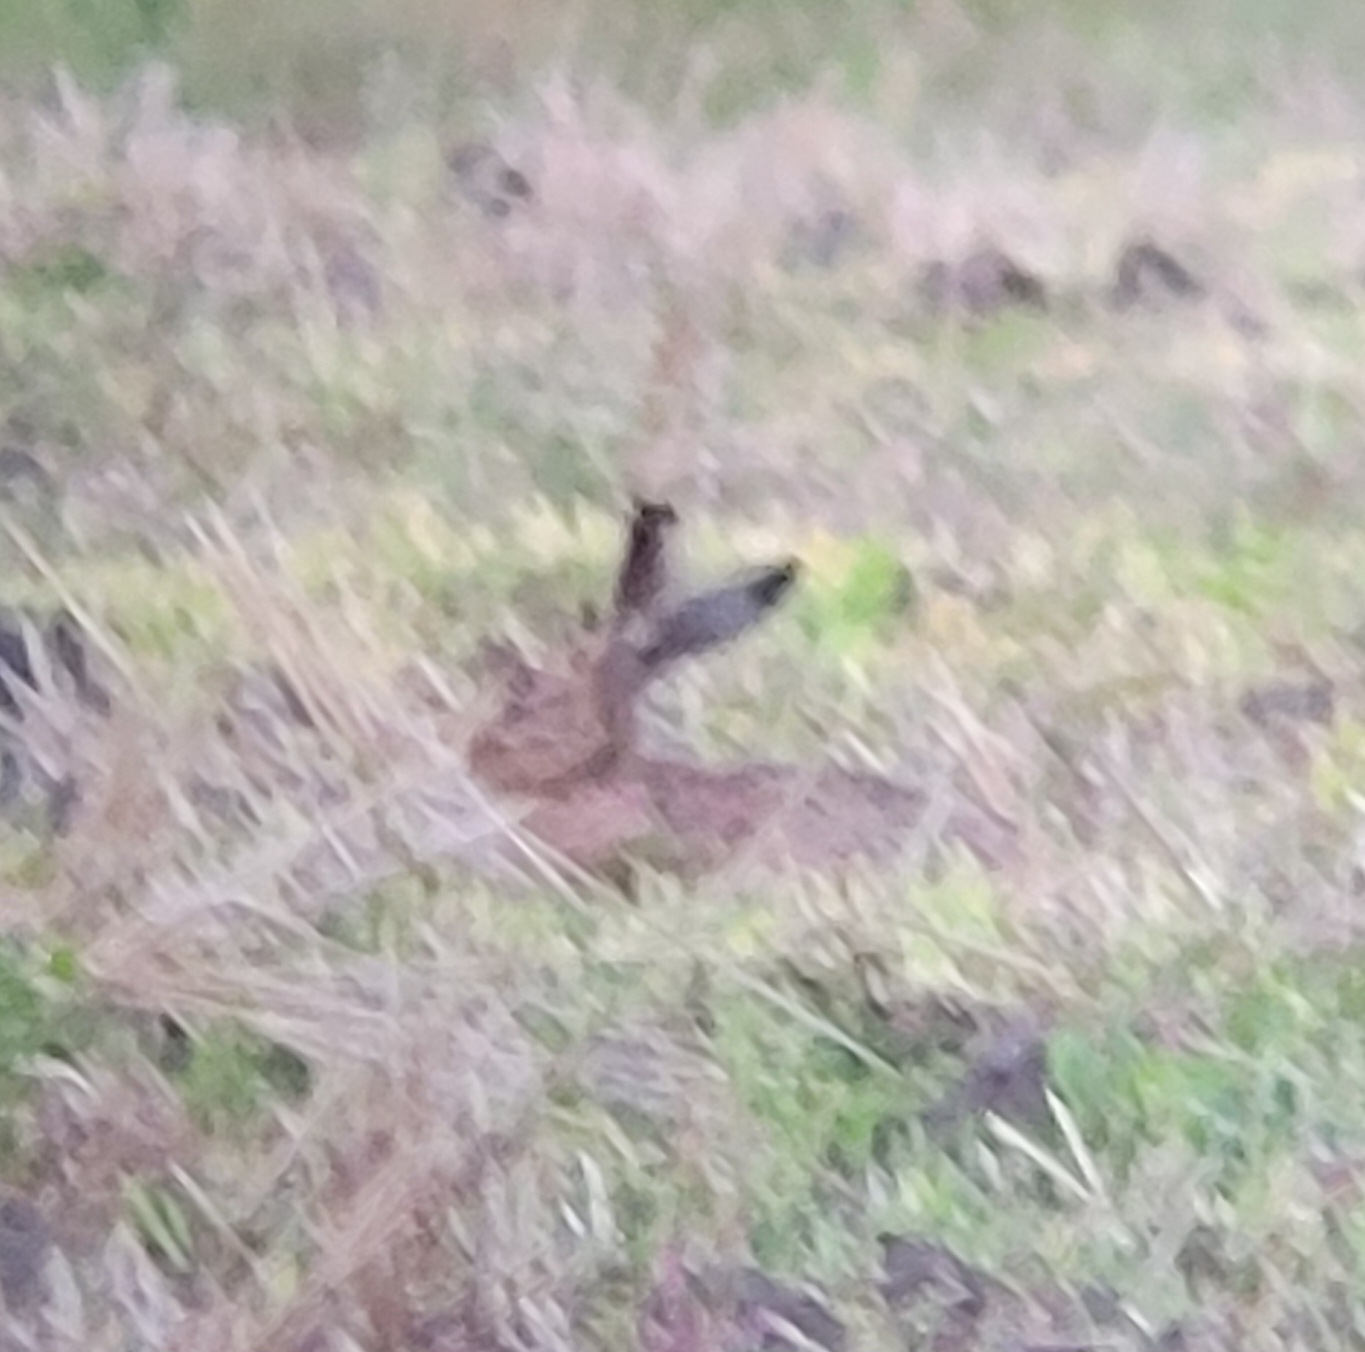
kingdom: Animalia
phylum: Chordata
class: Mammalia
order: Lagomorpha
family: Leporidae
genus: Lepus
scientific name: Lepus europaeus
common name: European hare
